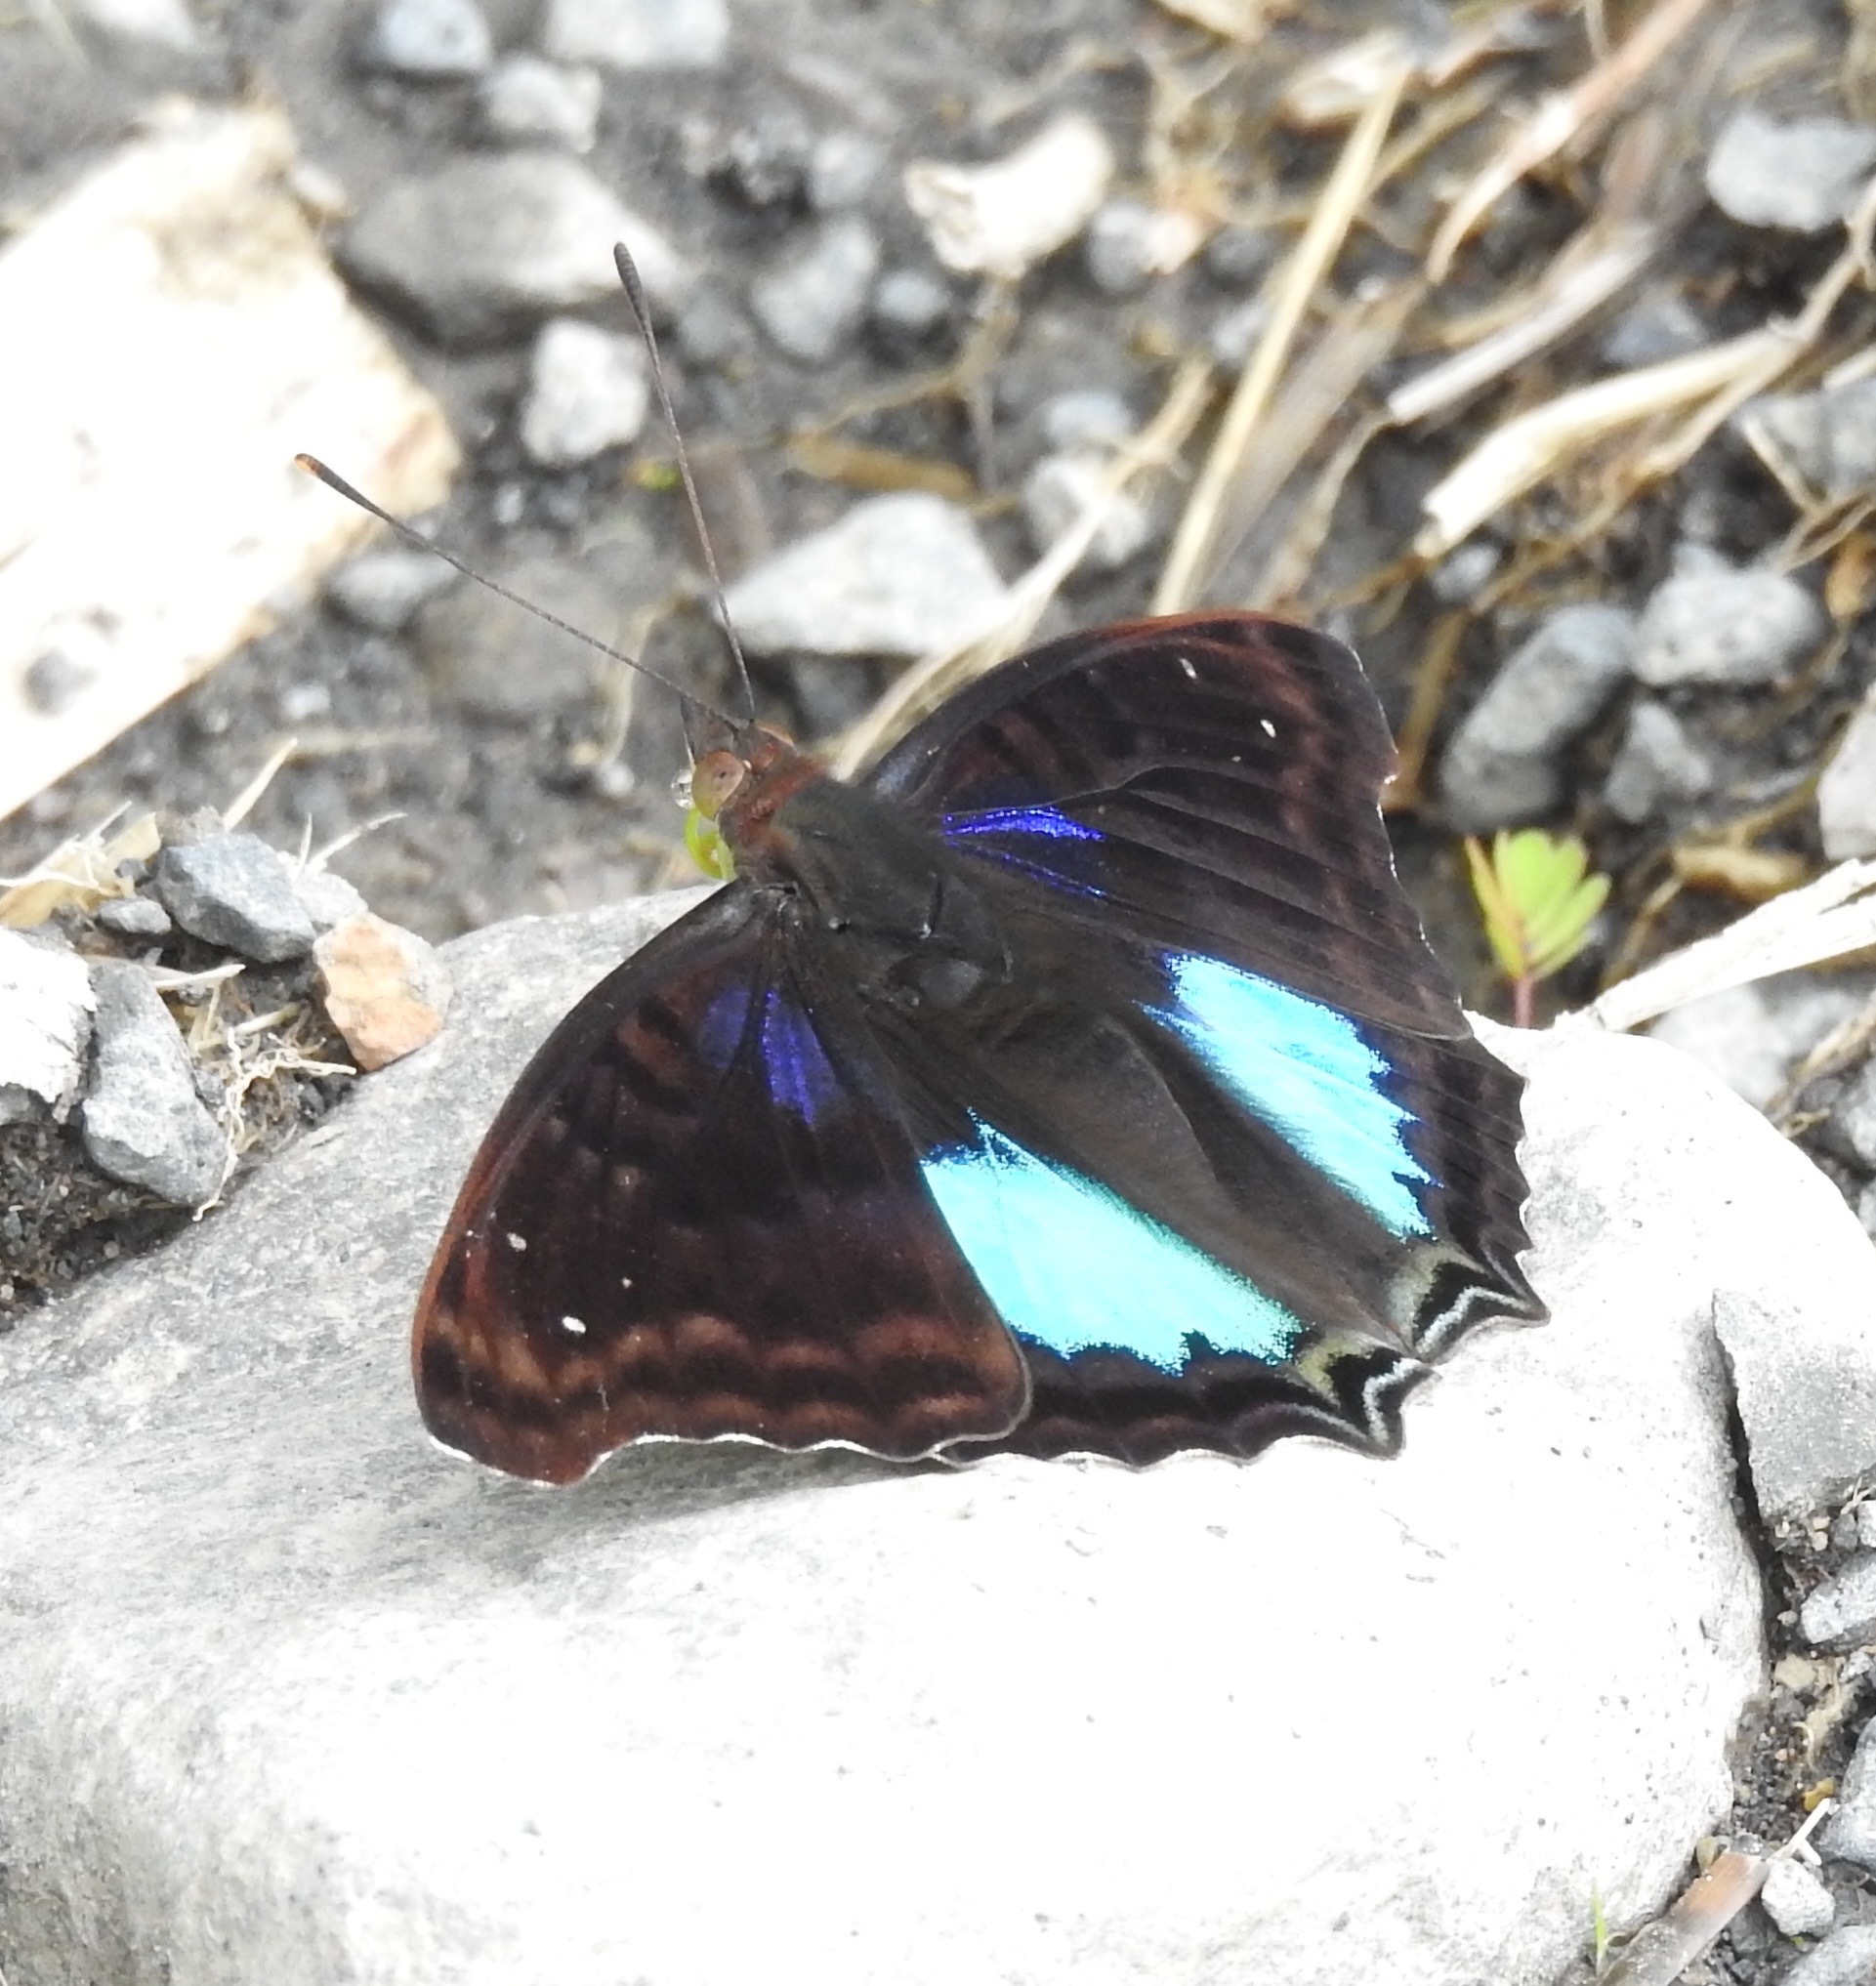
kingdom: Animalia
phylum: Arthropoda
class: Insecta
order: Lepidoptera
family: Nymphalidae
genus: Doxocopa
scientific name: Doxocopa cyane
